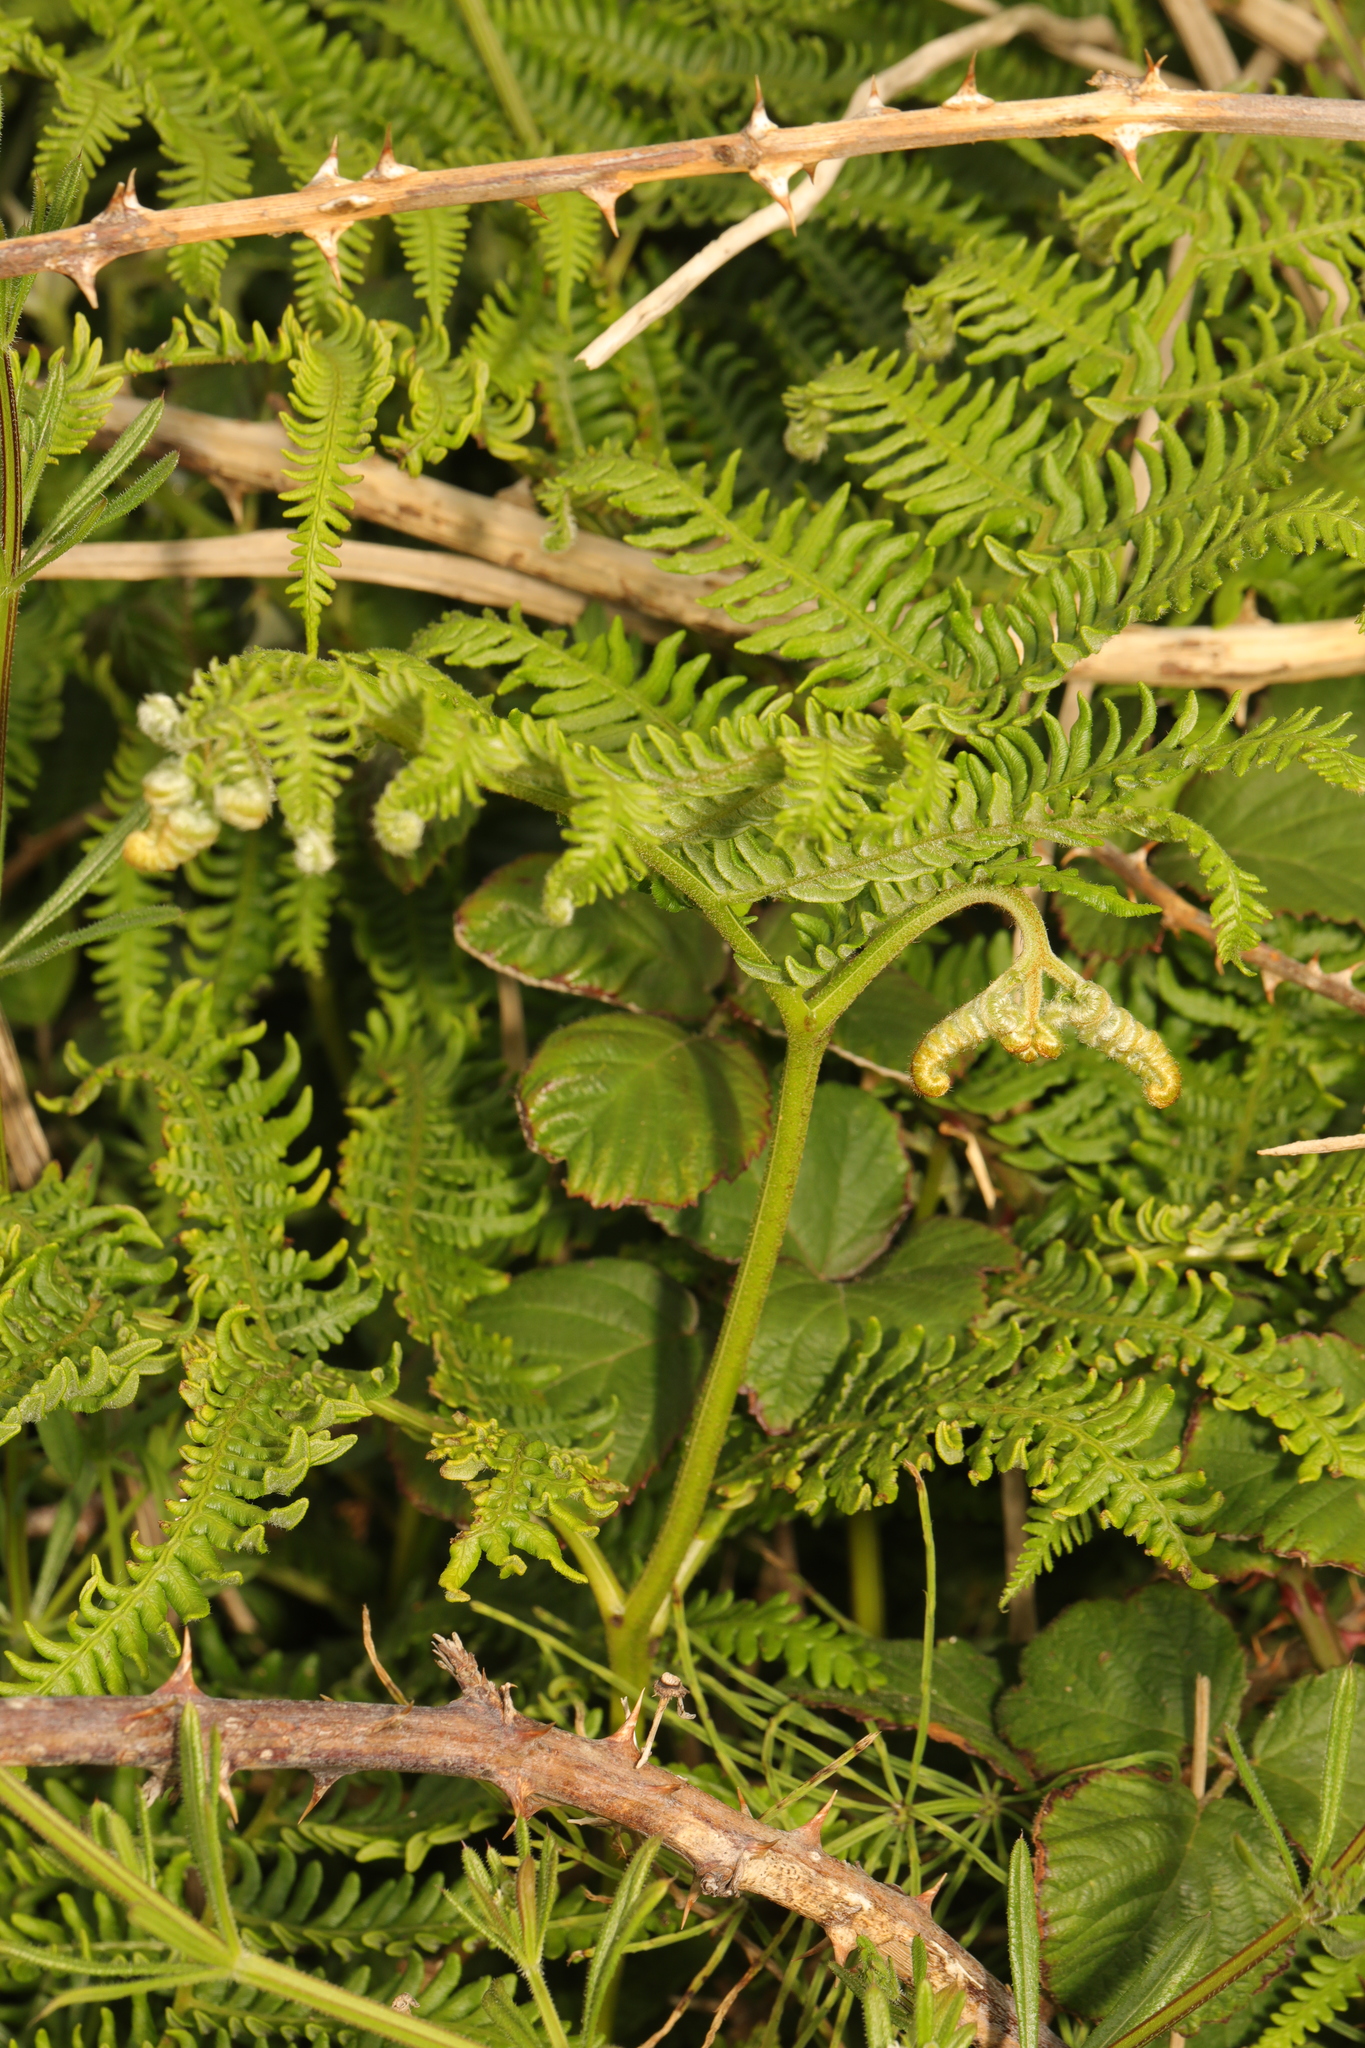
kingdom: Plantae
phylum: Tracheophyta
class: Polypodiopsida
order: Polypodiales
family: Dennstaedtiaceae
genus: Pteridium
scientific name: Pteridium aquilinum
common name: Bracken
